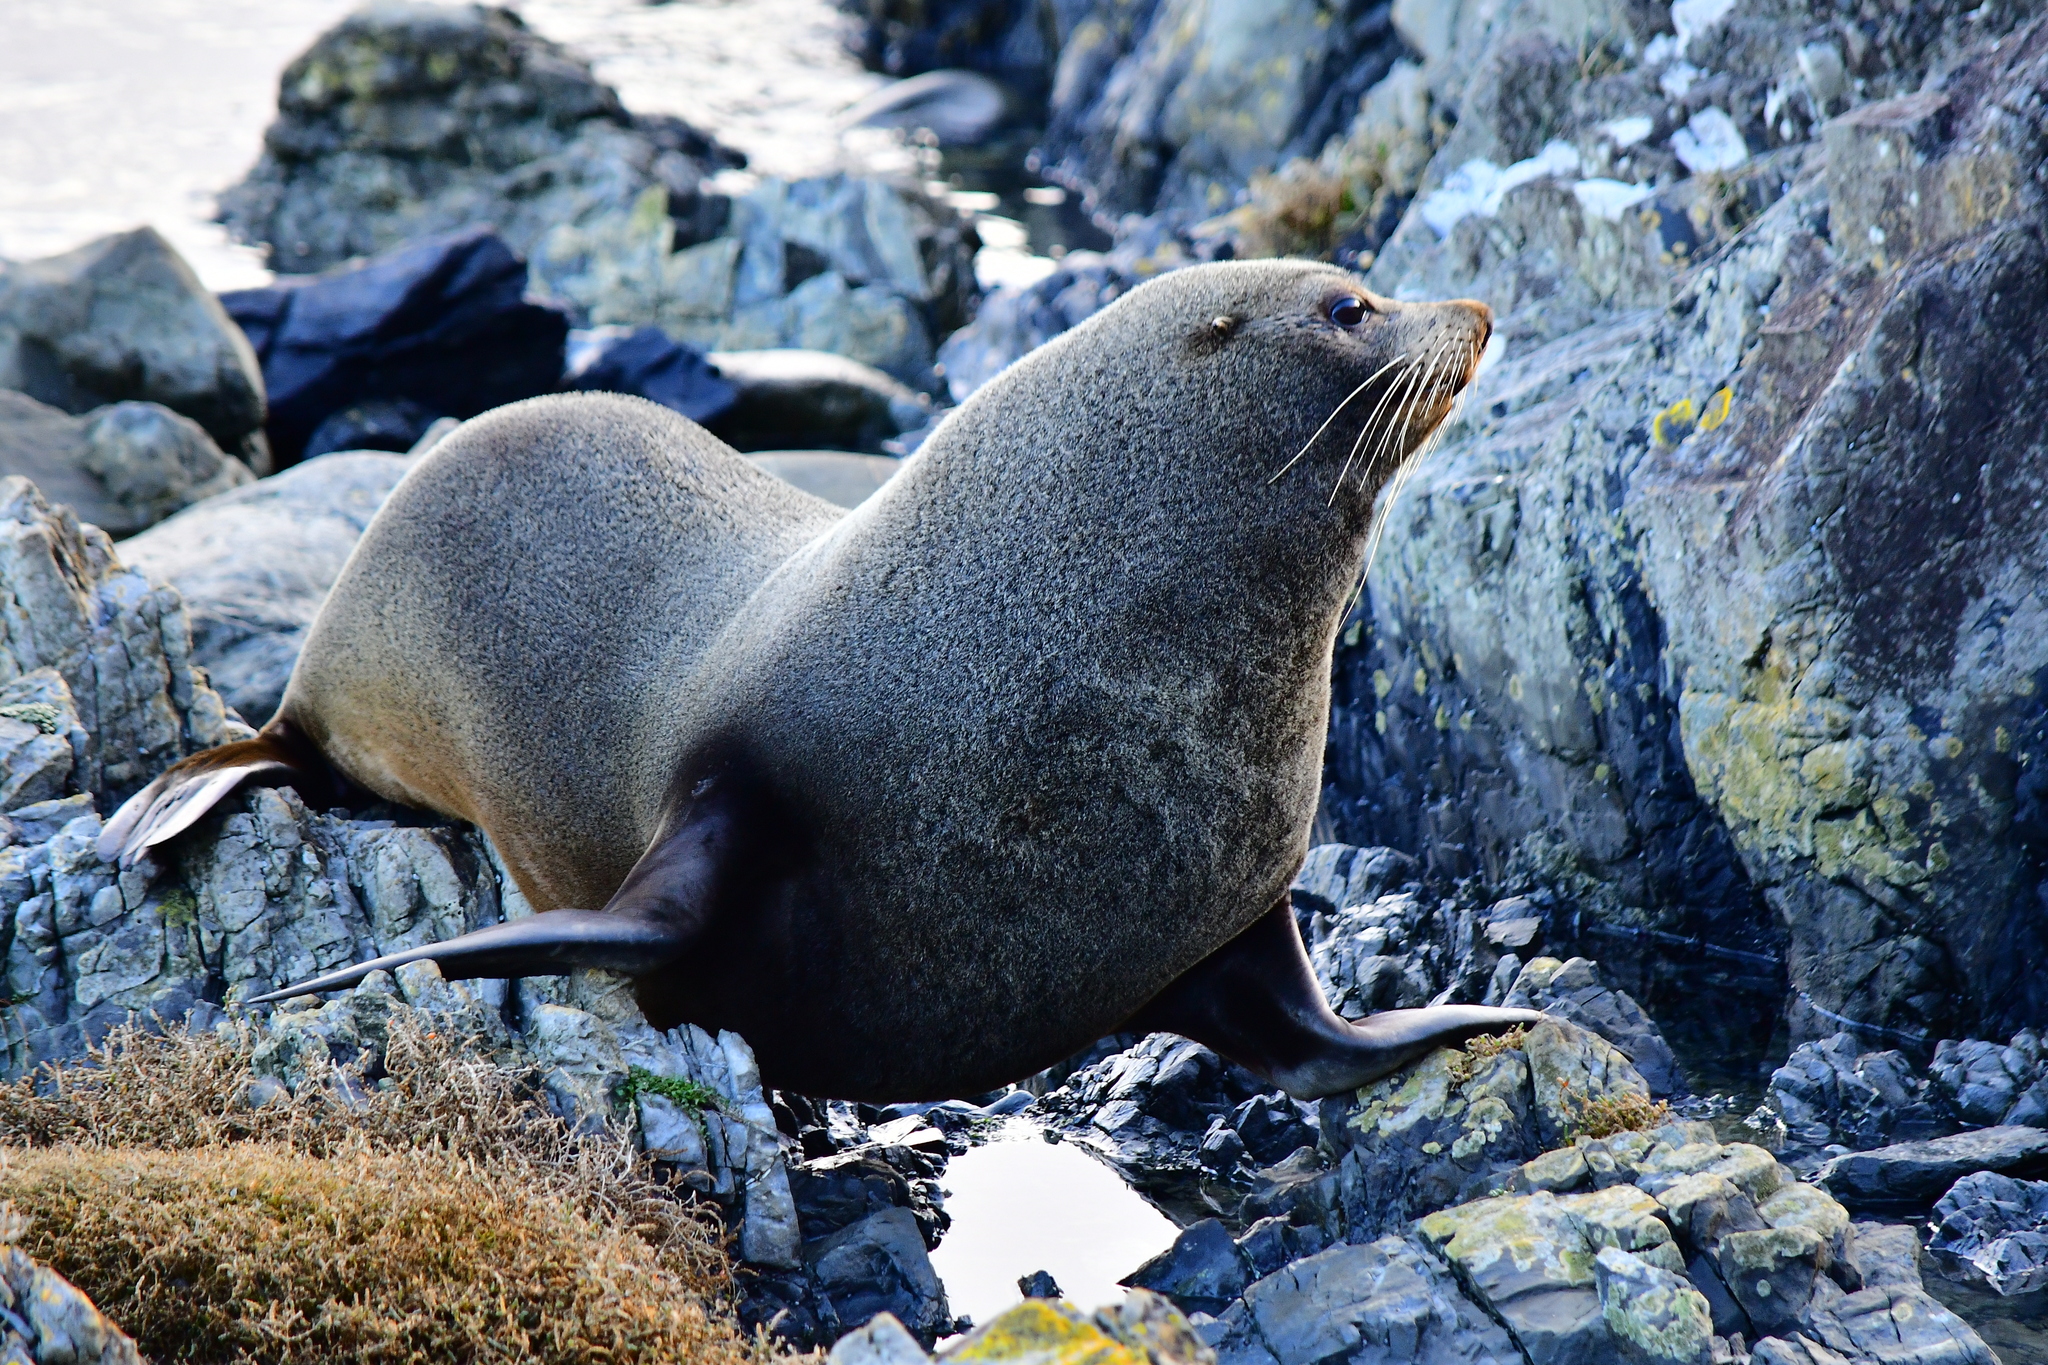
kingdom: Animalia
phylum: Chordata
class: Mammalia
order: Carnivora
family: Otariidae
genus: Arctocephalus
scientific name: Arctocephalus forsteri
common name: New zealand fur seal
